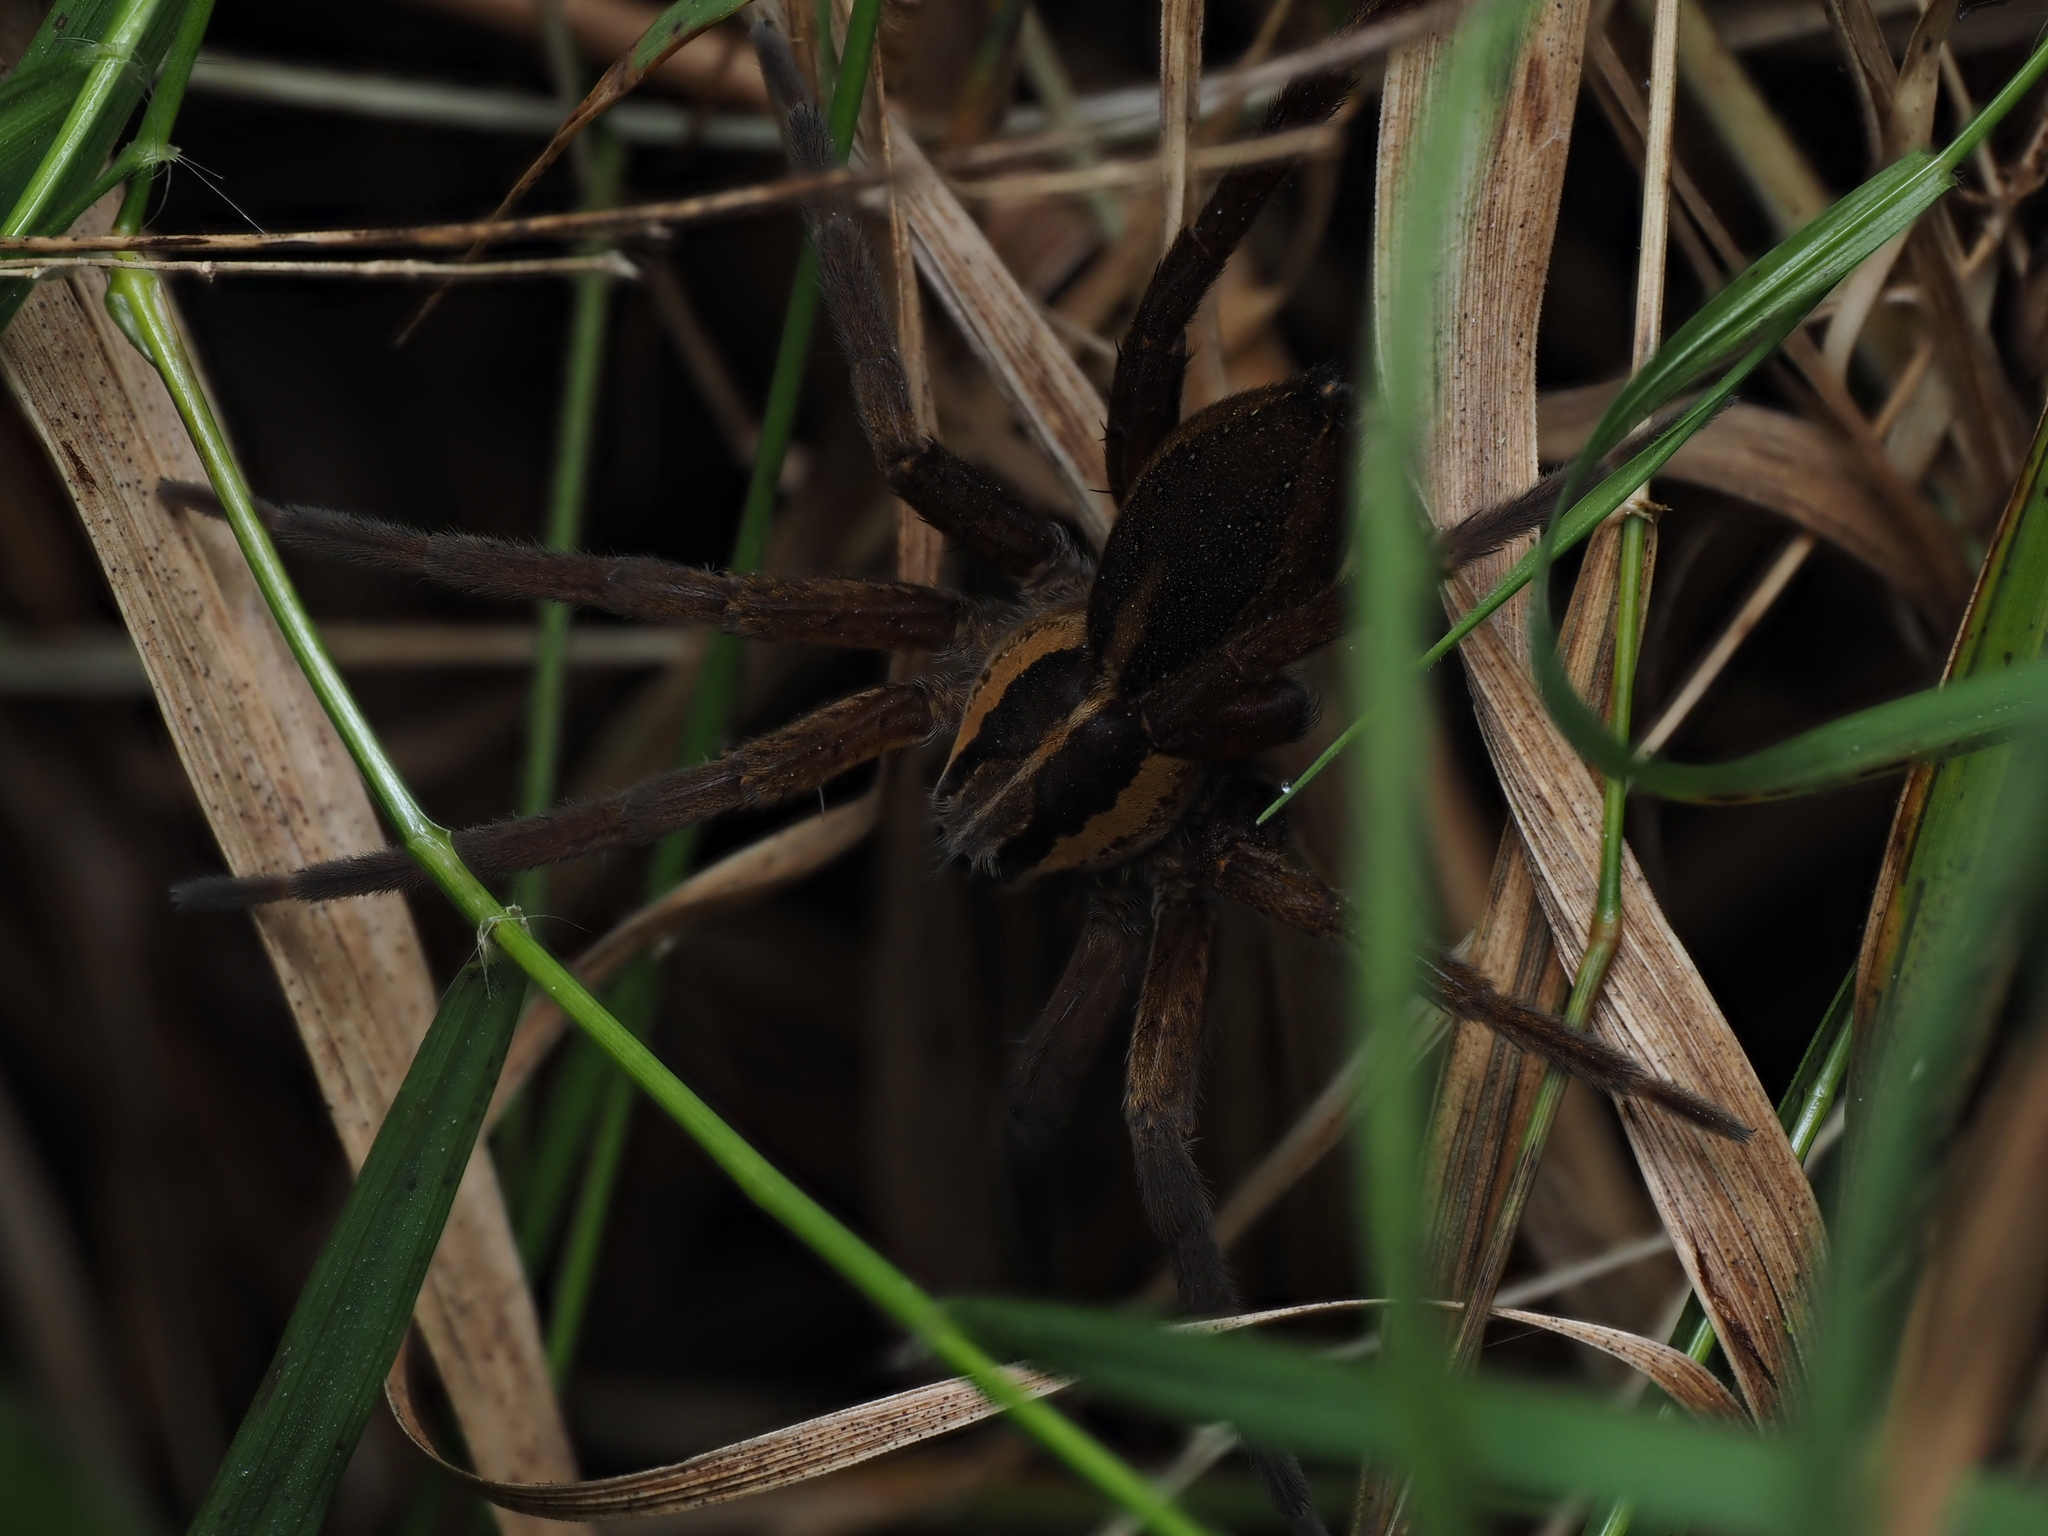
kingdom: Animalia
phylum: Arthropoda
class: Arachnida
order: Araneae
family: Pisauridae
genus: Dolomedes
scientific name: Dolomedes minor
